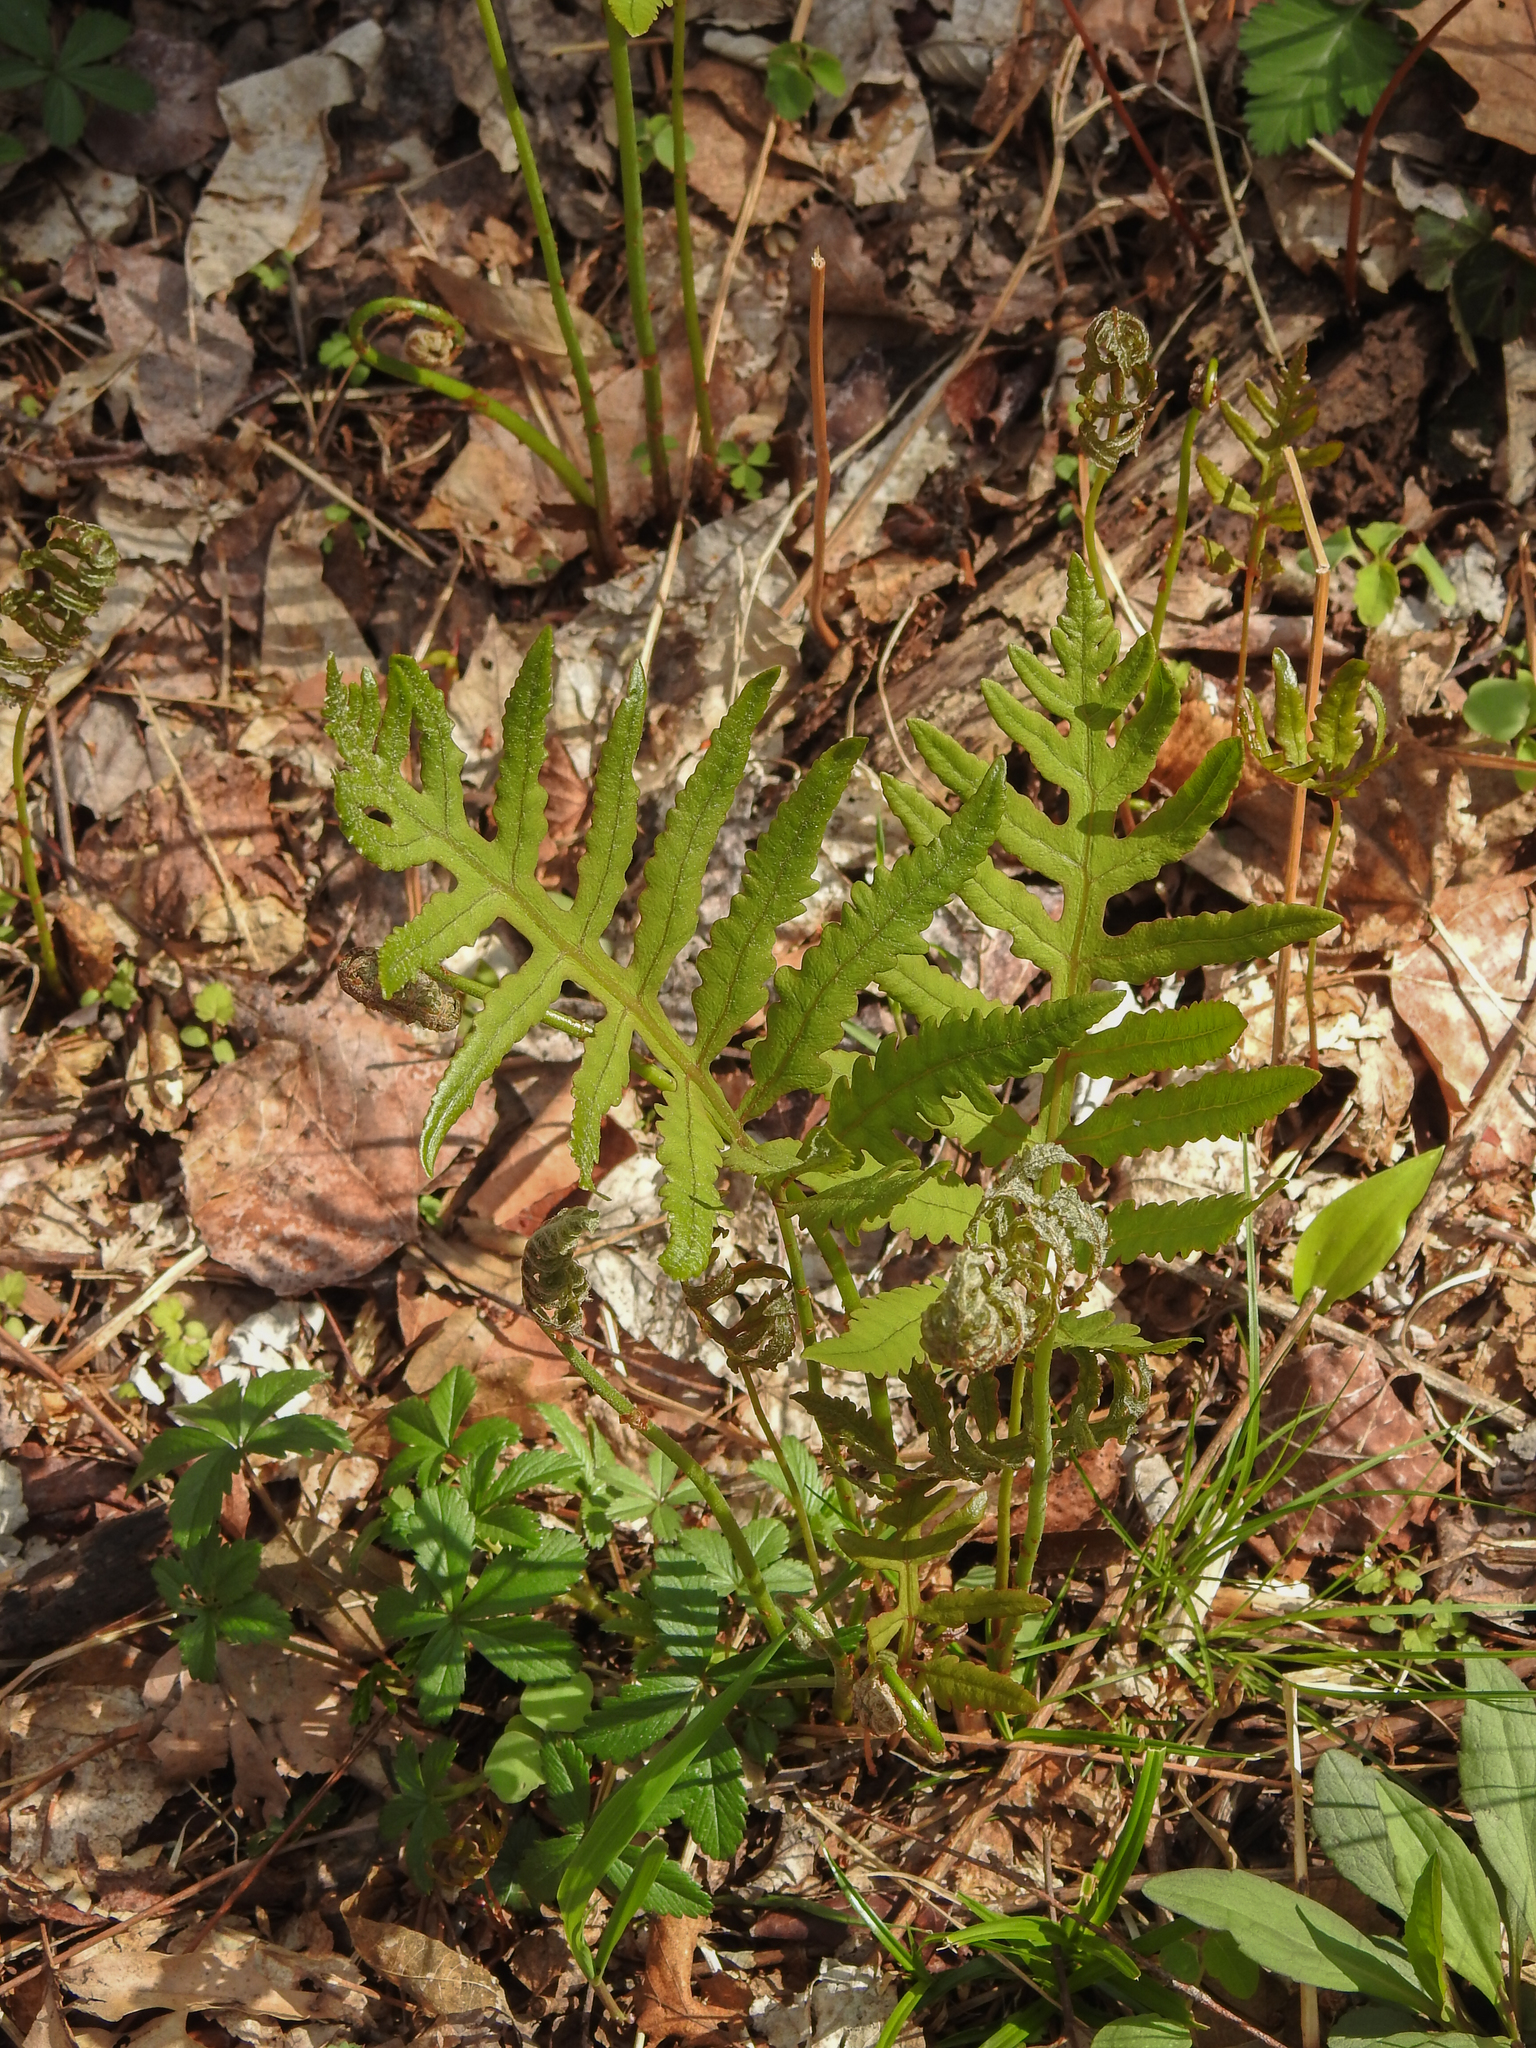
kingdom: Plantae
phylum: Tracheophyta
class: Polypodiopsida
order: Polypodiales
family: Onocleaceae
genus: Onoclea
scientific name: Onoclea sensibilis
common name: Sensitive fern
